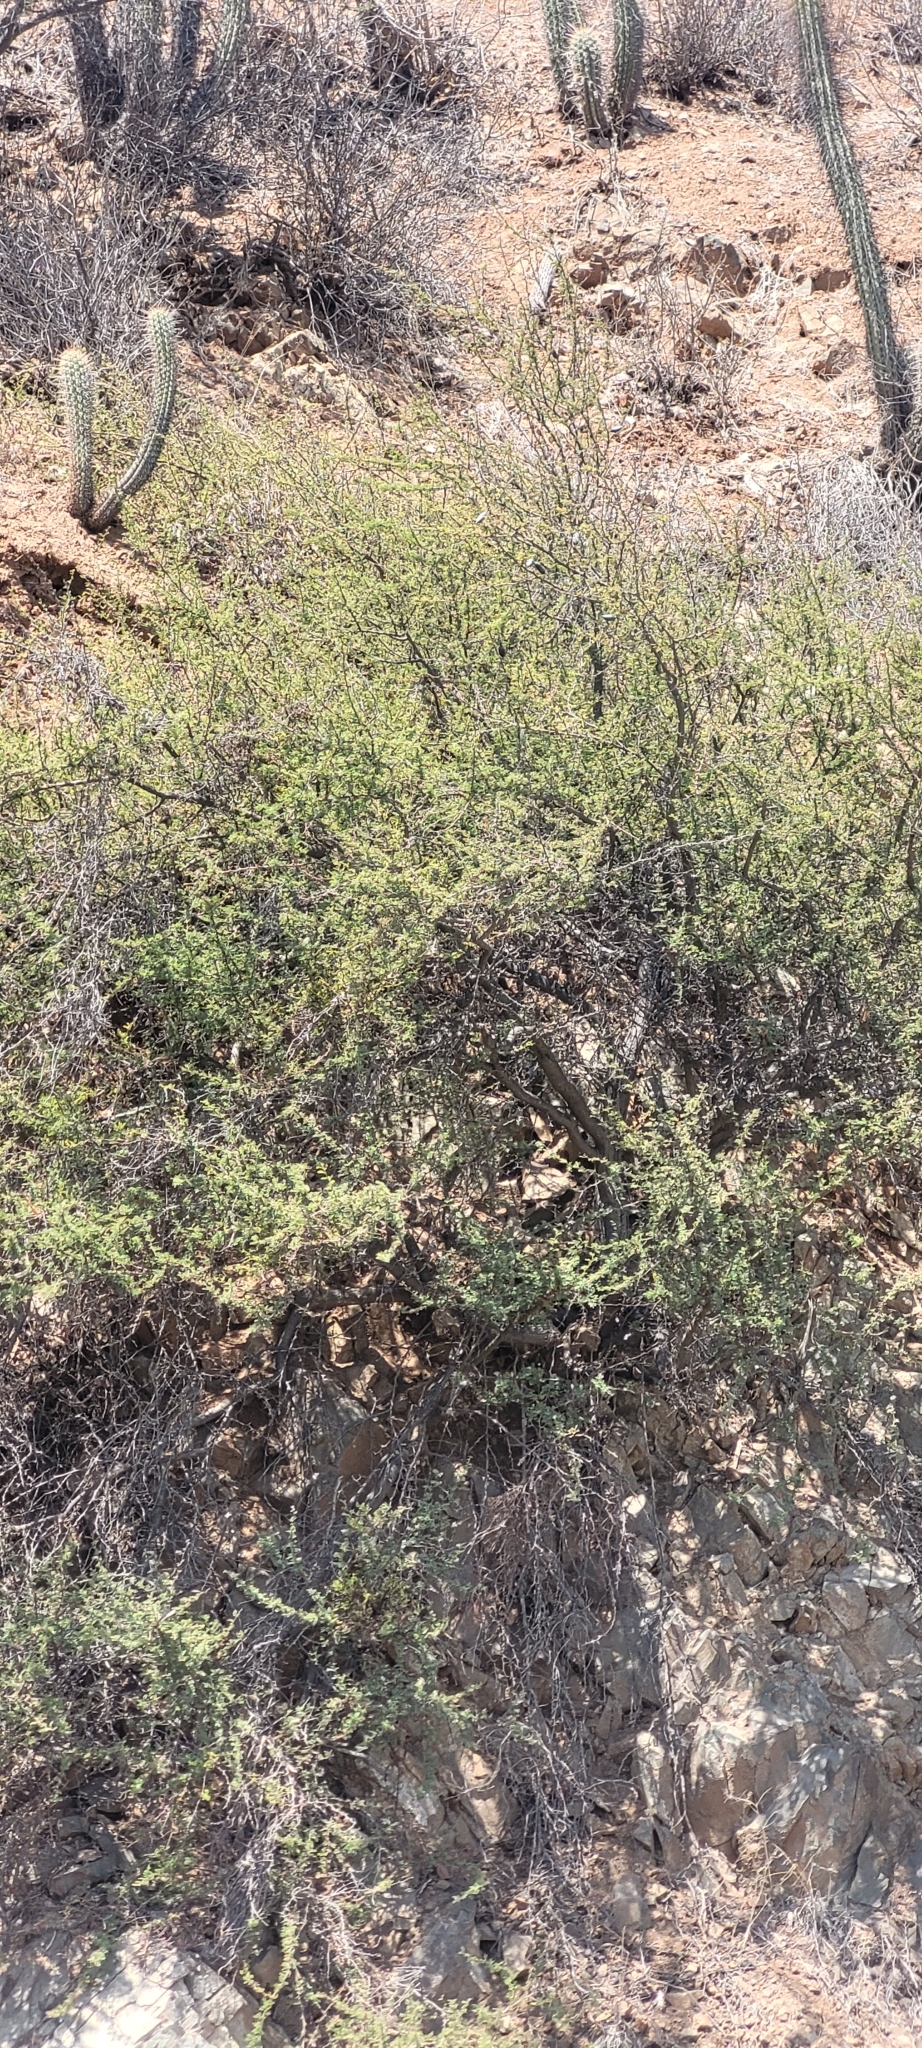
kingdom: Plantae
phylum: Tracheophyta
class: Magnoliopsida
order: Fabales
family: Fabaceae
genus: Vachellia
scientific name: Vachellia caven
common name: Roman cassie
